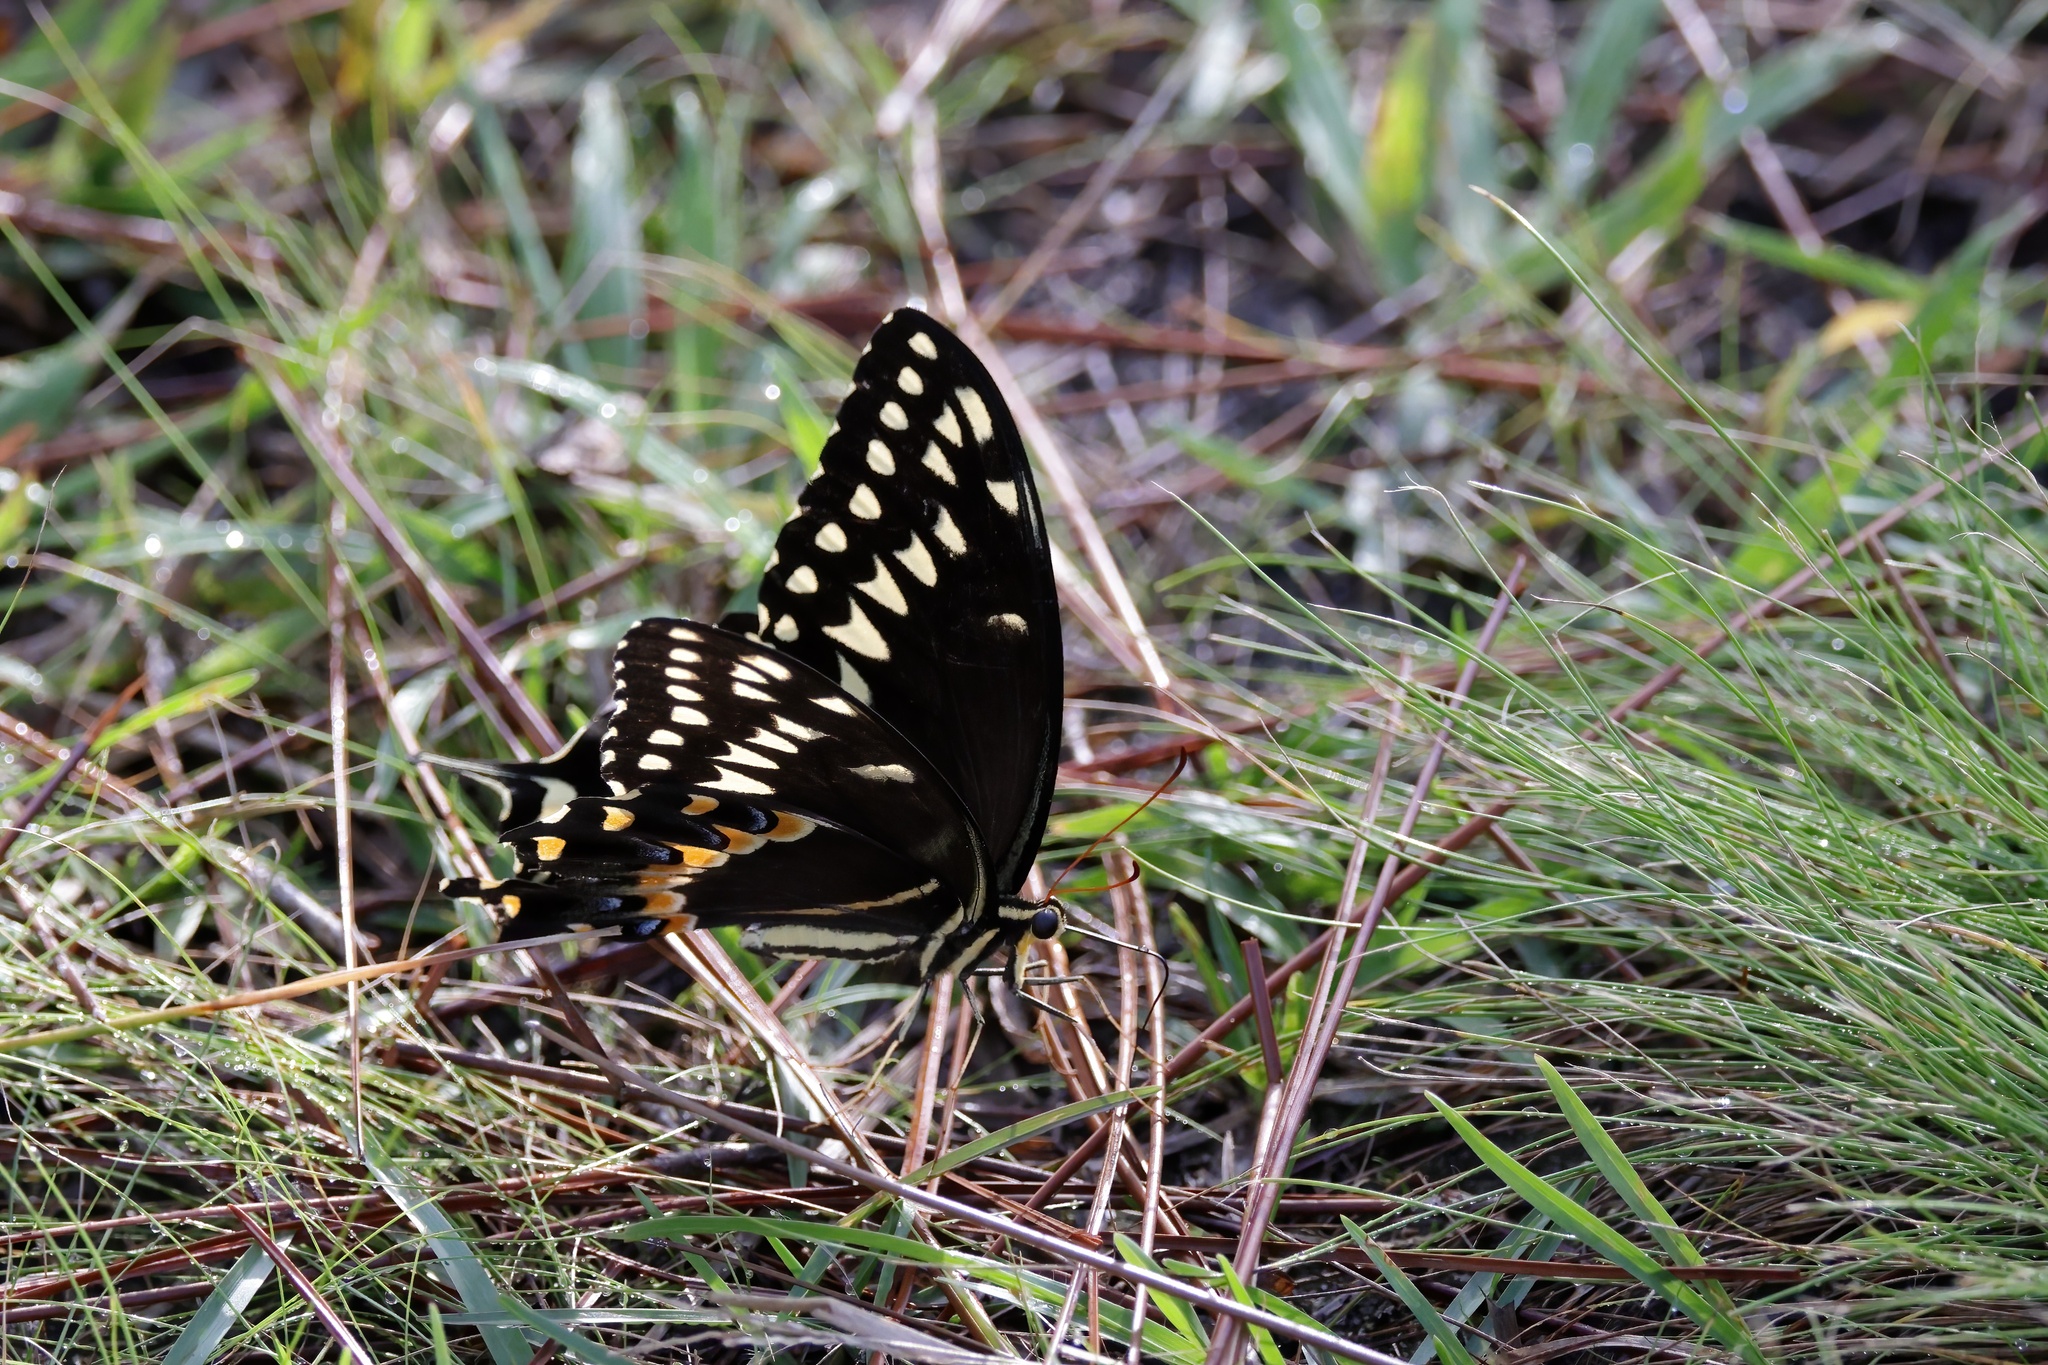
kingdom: Animalia
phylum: Arthropoda
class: Insecta
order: Lepidoptera
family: Papilionidae
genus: Papilio
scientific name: Papilio palamedes
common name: Palamedes swallowtail
